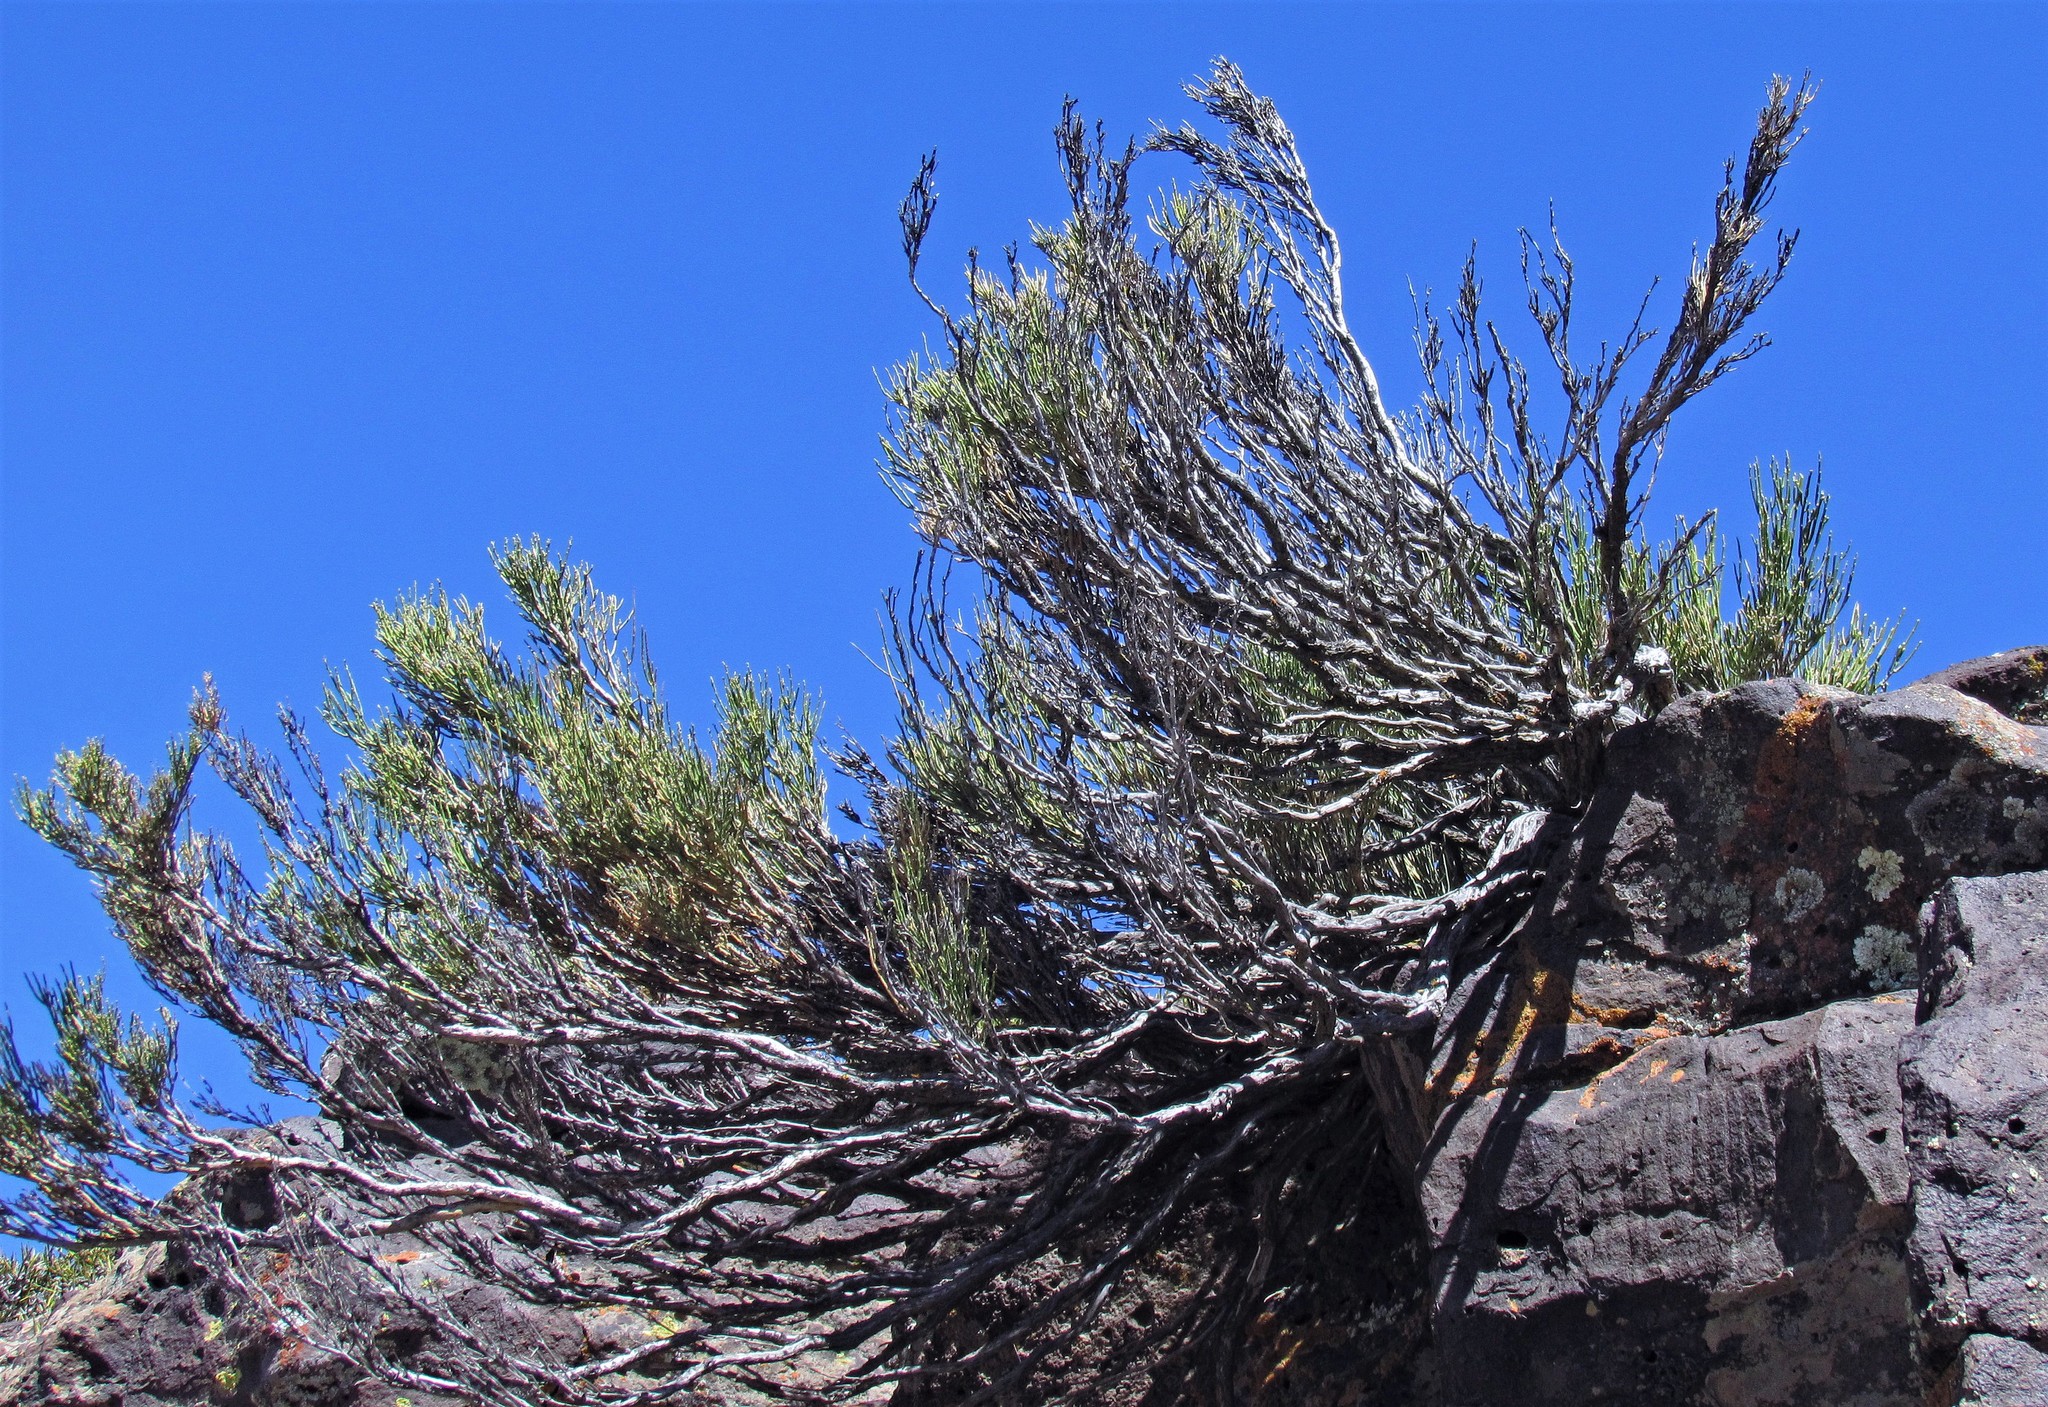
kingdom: Plantae
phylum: Tracheophyta
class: Gnetopsida
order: Ephedrales
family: Ephedraceae
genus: Ephedra
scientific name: Ephedra ochreata
